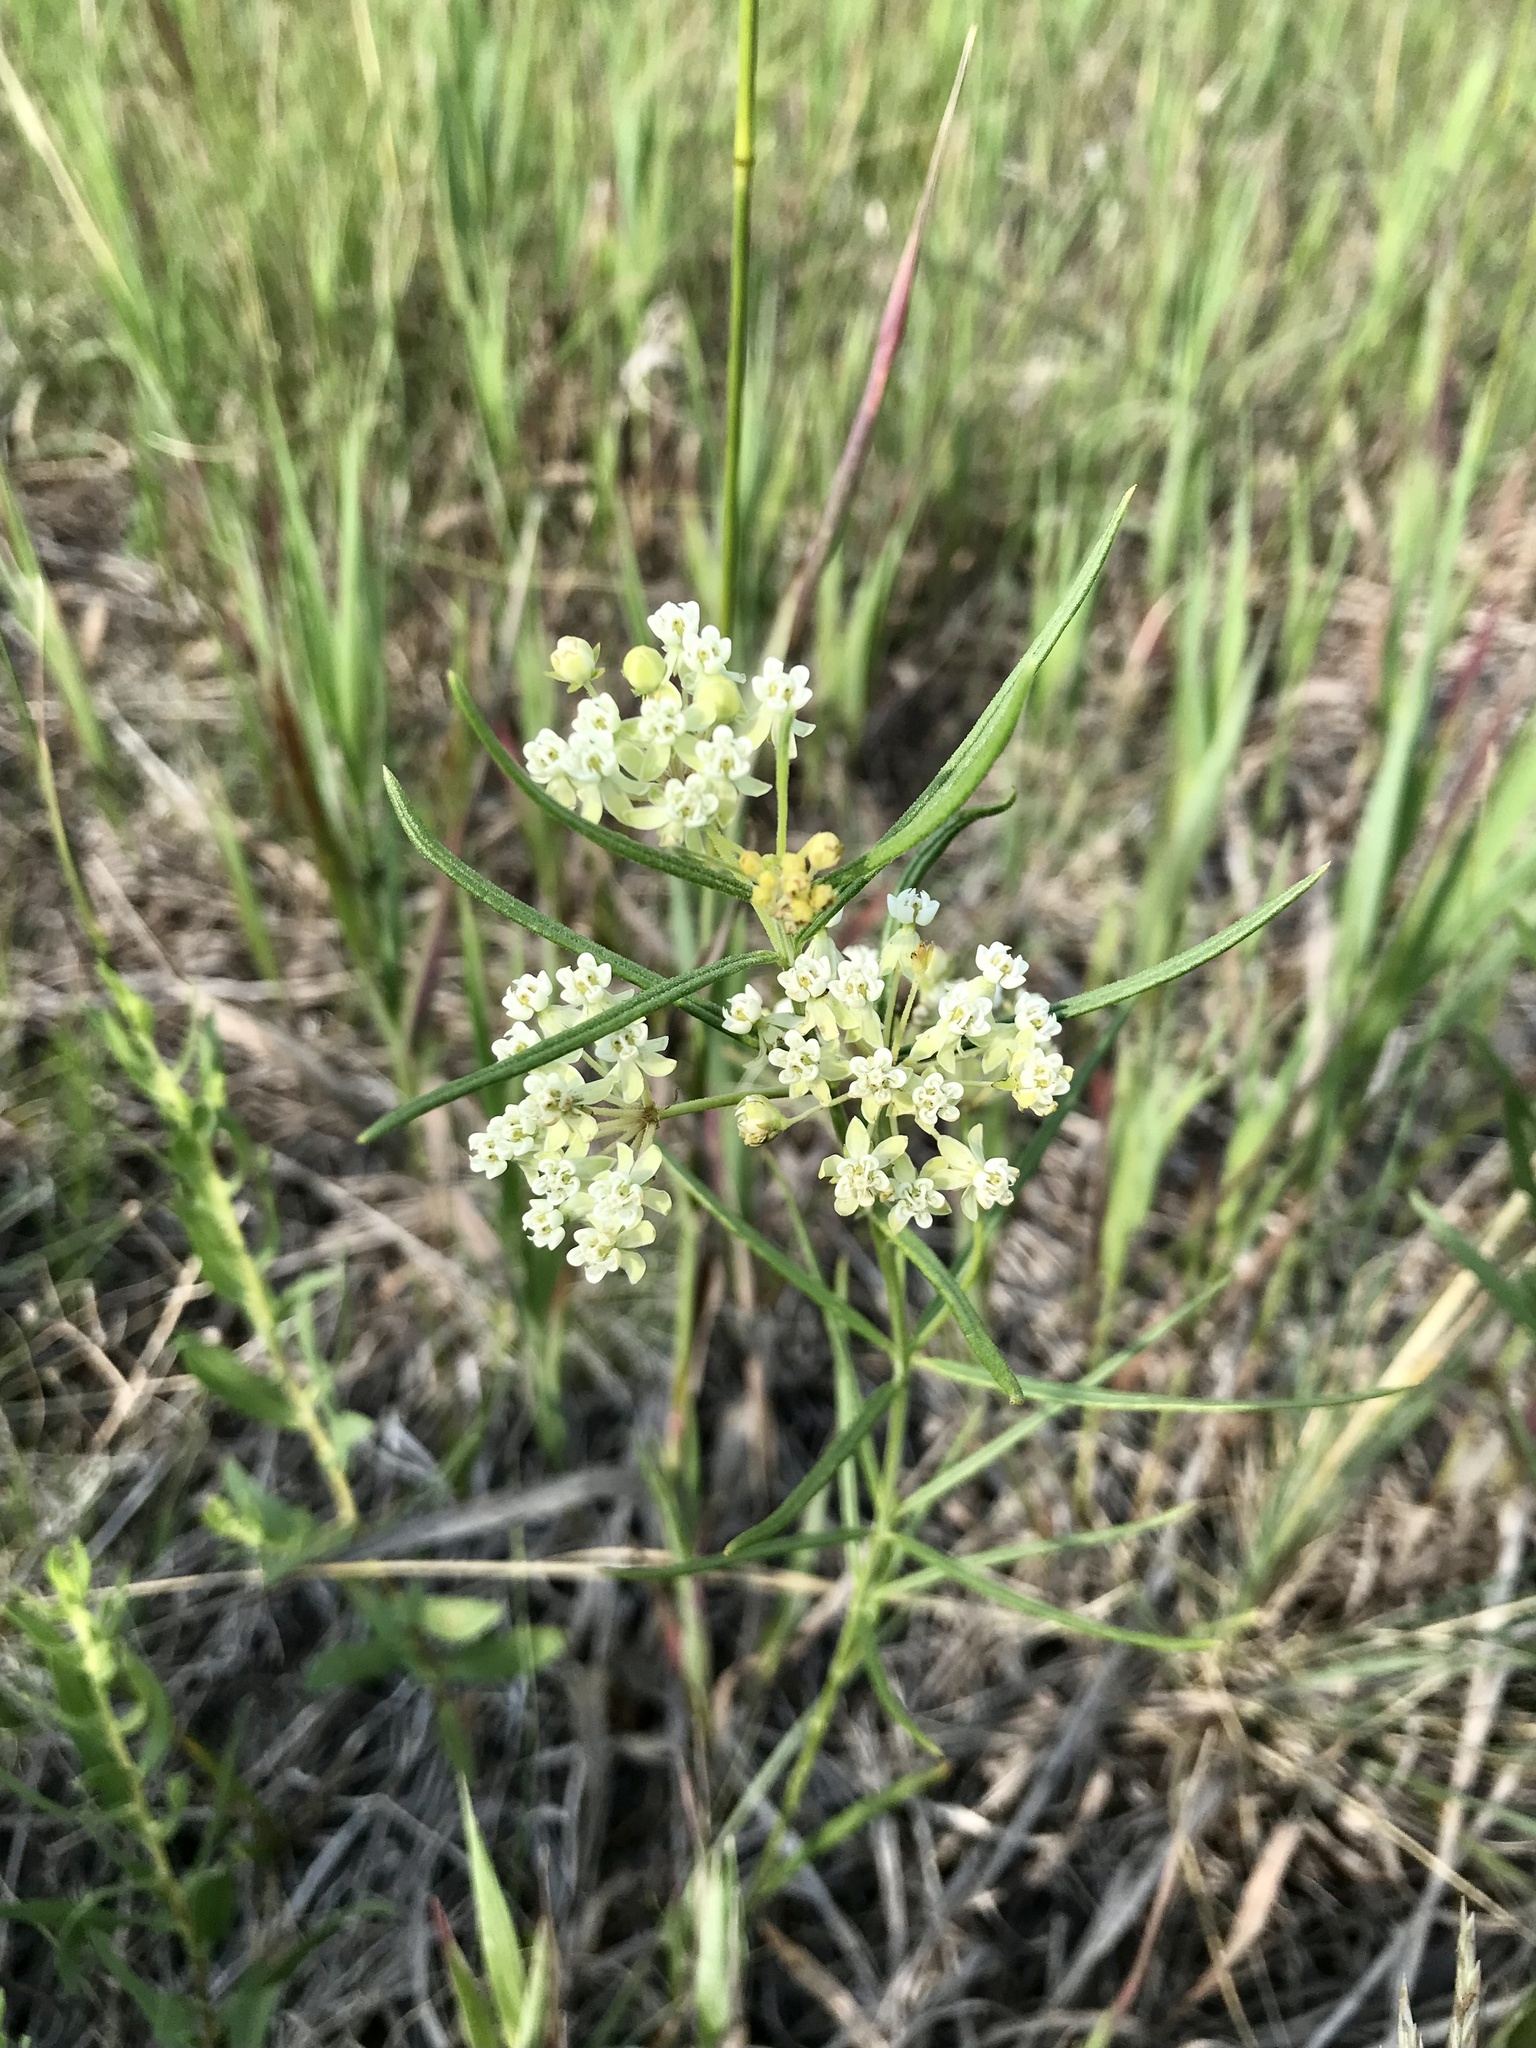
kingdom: Plantae
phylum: Tracheophyta
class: Magnoliopsida
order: Gentianales
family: Apocynaceae
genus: Asclepias
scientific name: Asclepias verticillata
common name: Eastern whorled milkweed
